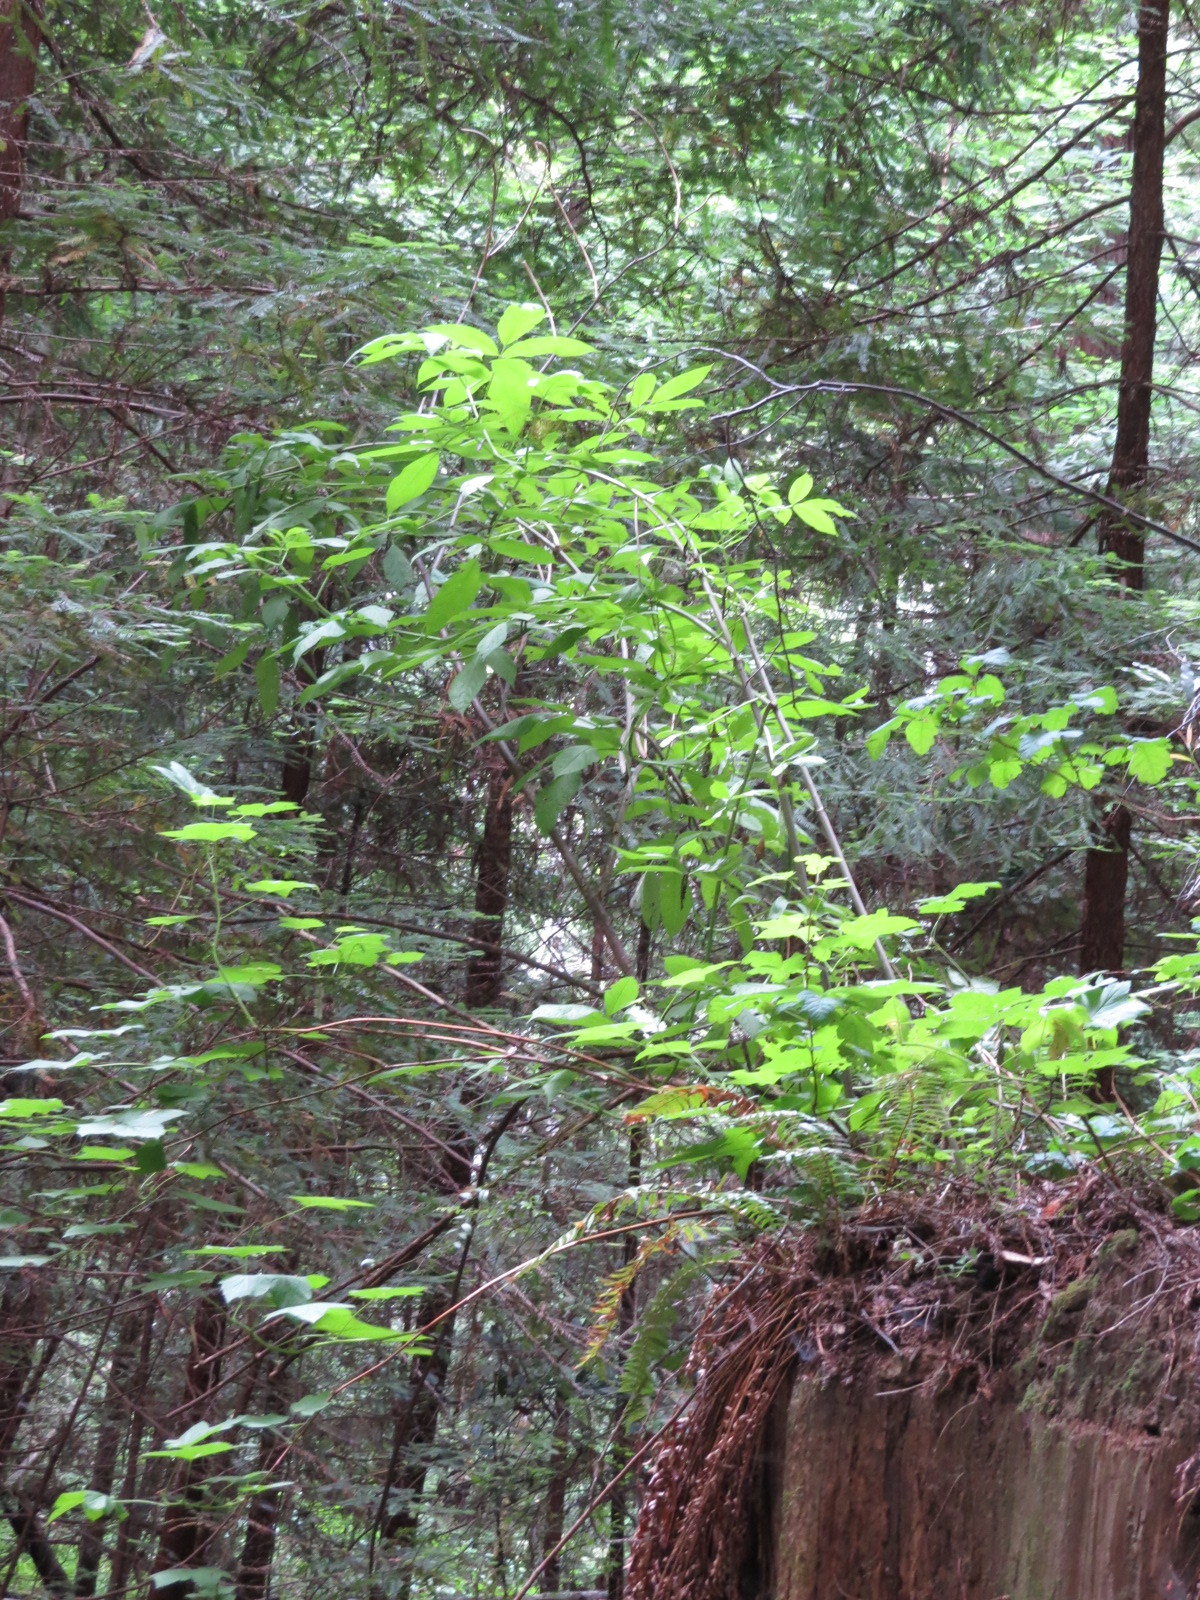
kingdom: Plantae
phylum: Tracheophyta
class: Magnoliopsida
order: Dipsacales
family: Viburnaceae
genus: Sambucus
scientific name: Sambucus racemosa
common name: Red-berried elder
